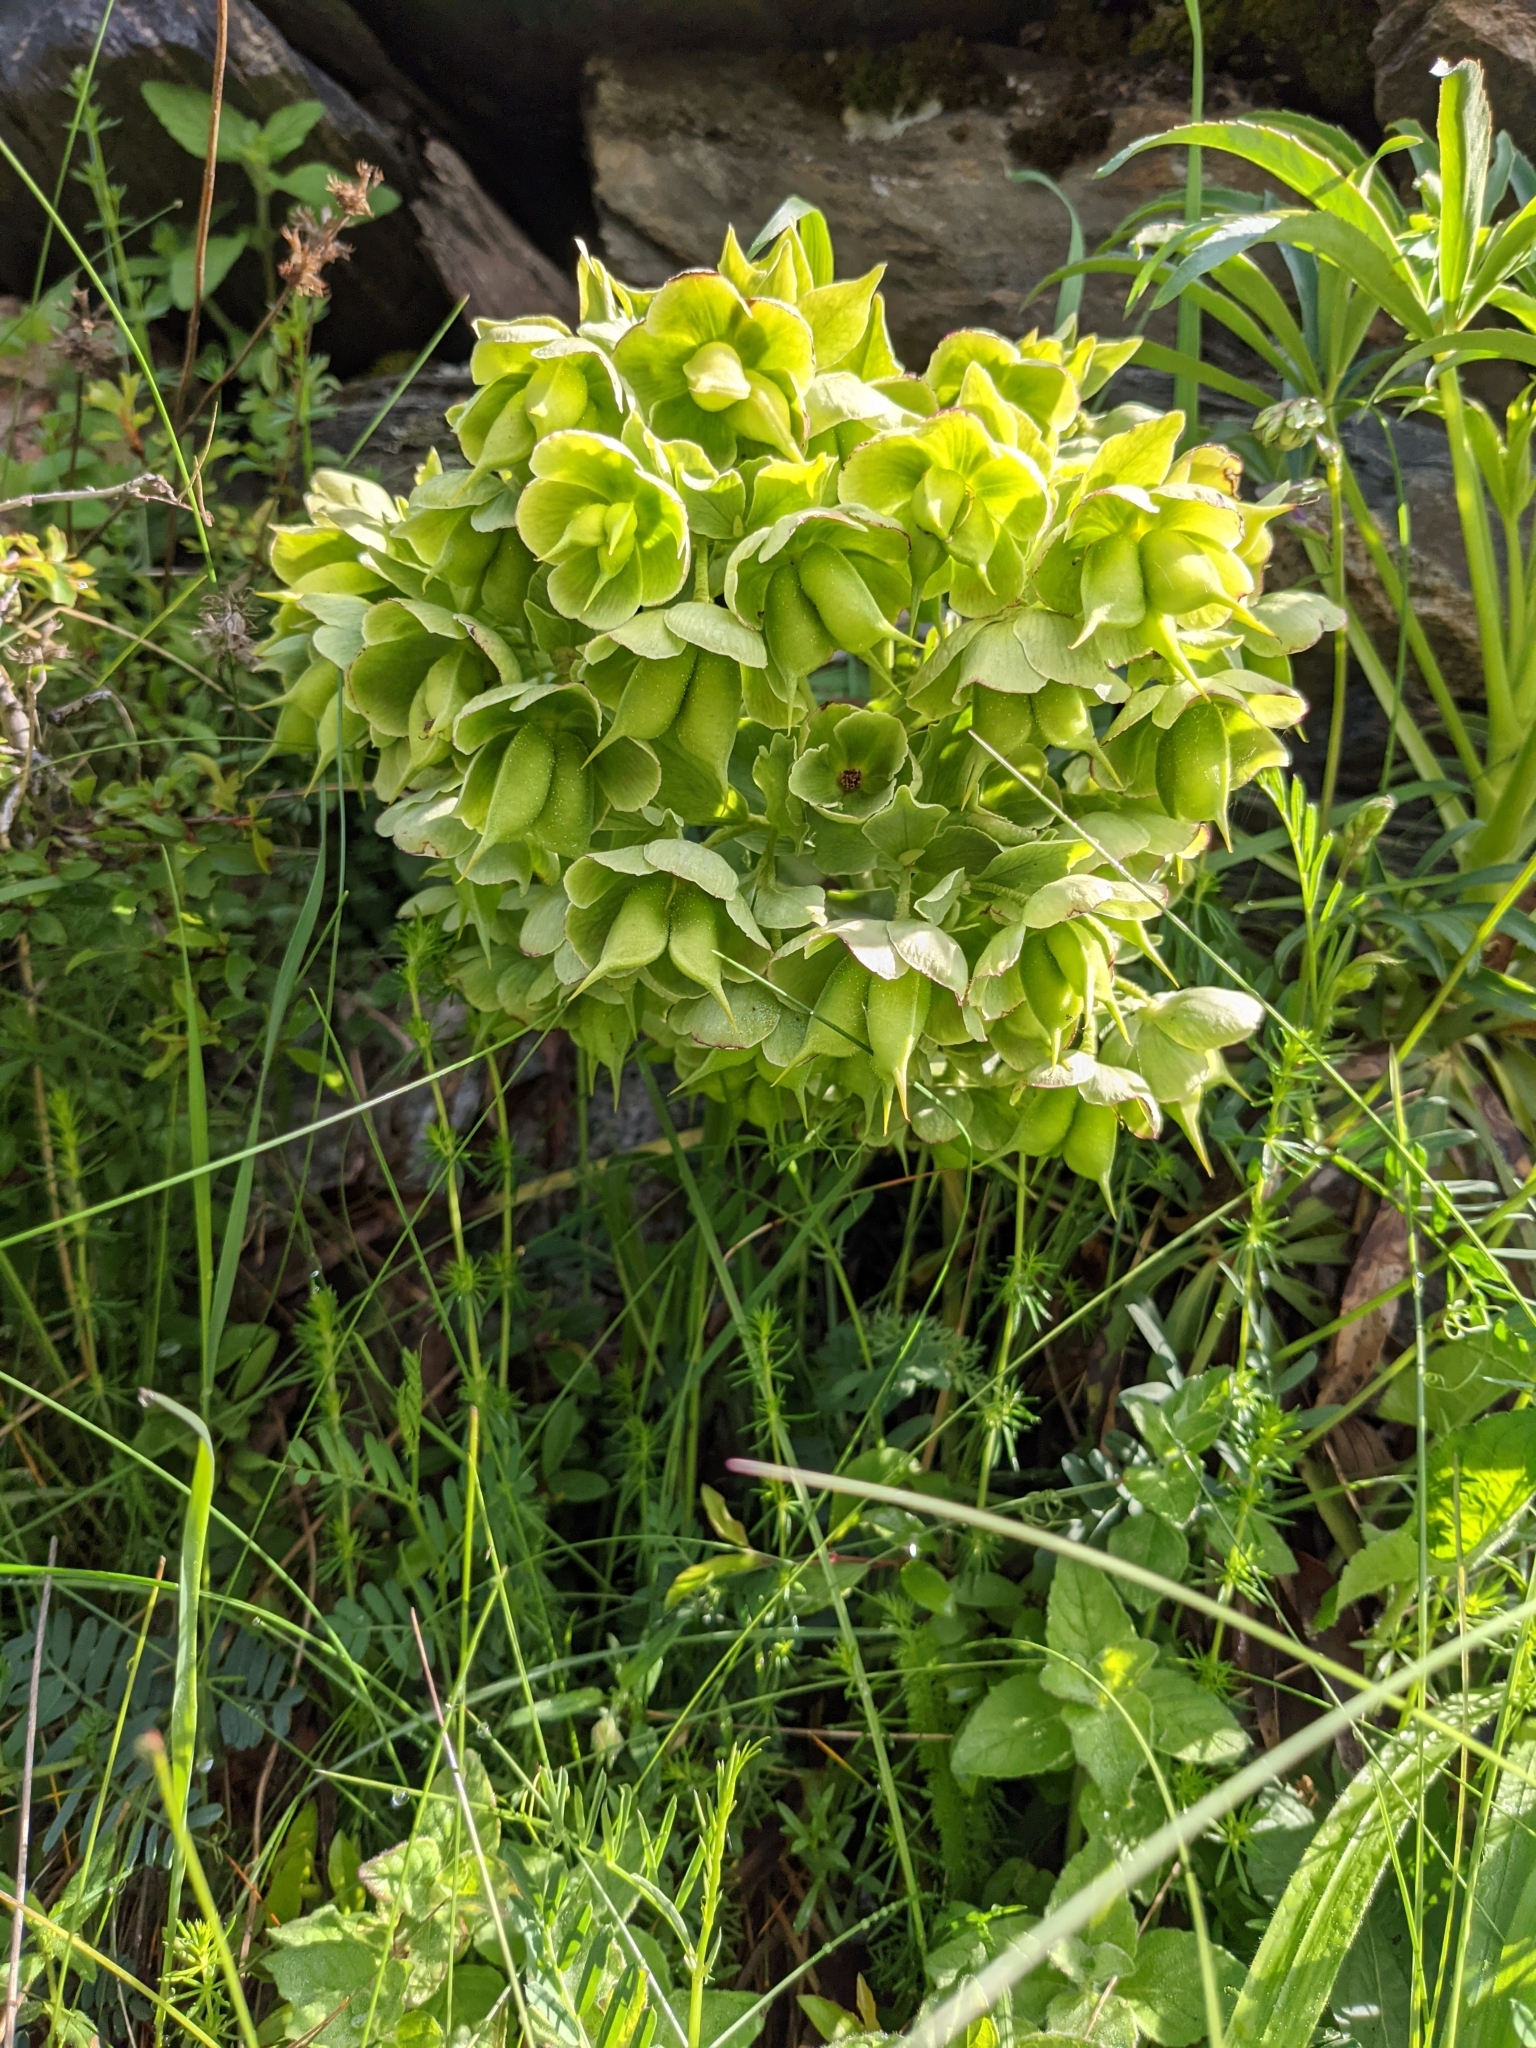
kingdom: Plantae
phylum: Tracheophyta
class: Magnoliopsida
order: Ranunculales
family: Ranunculaceae
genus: Helleborus
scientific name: Helleborus foetidus
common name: Stinking hellebore
